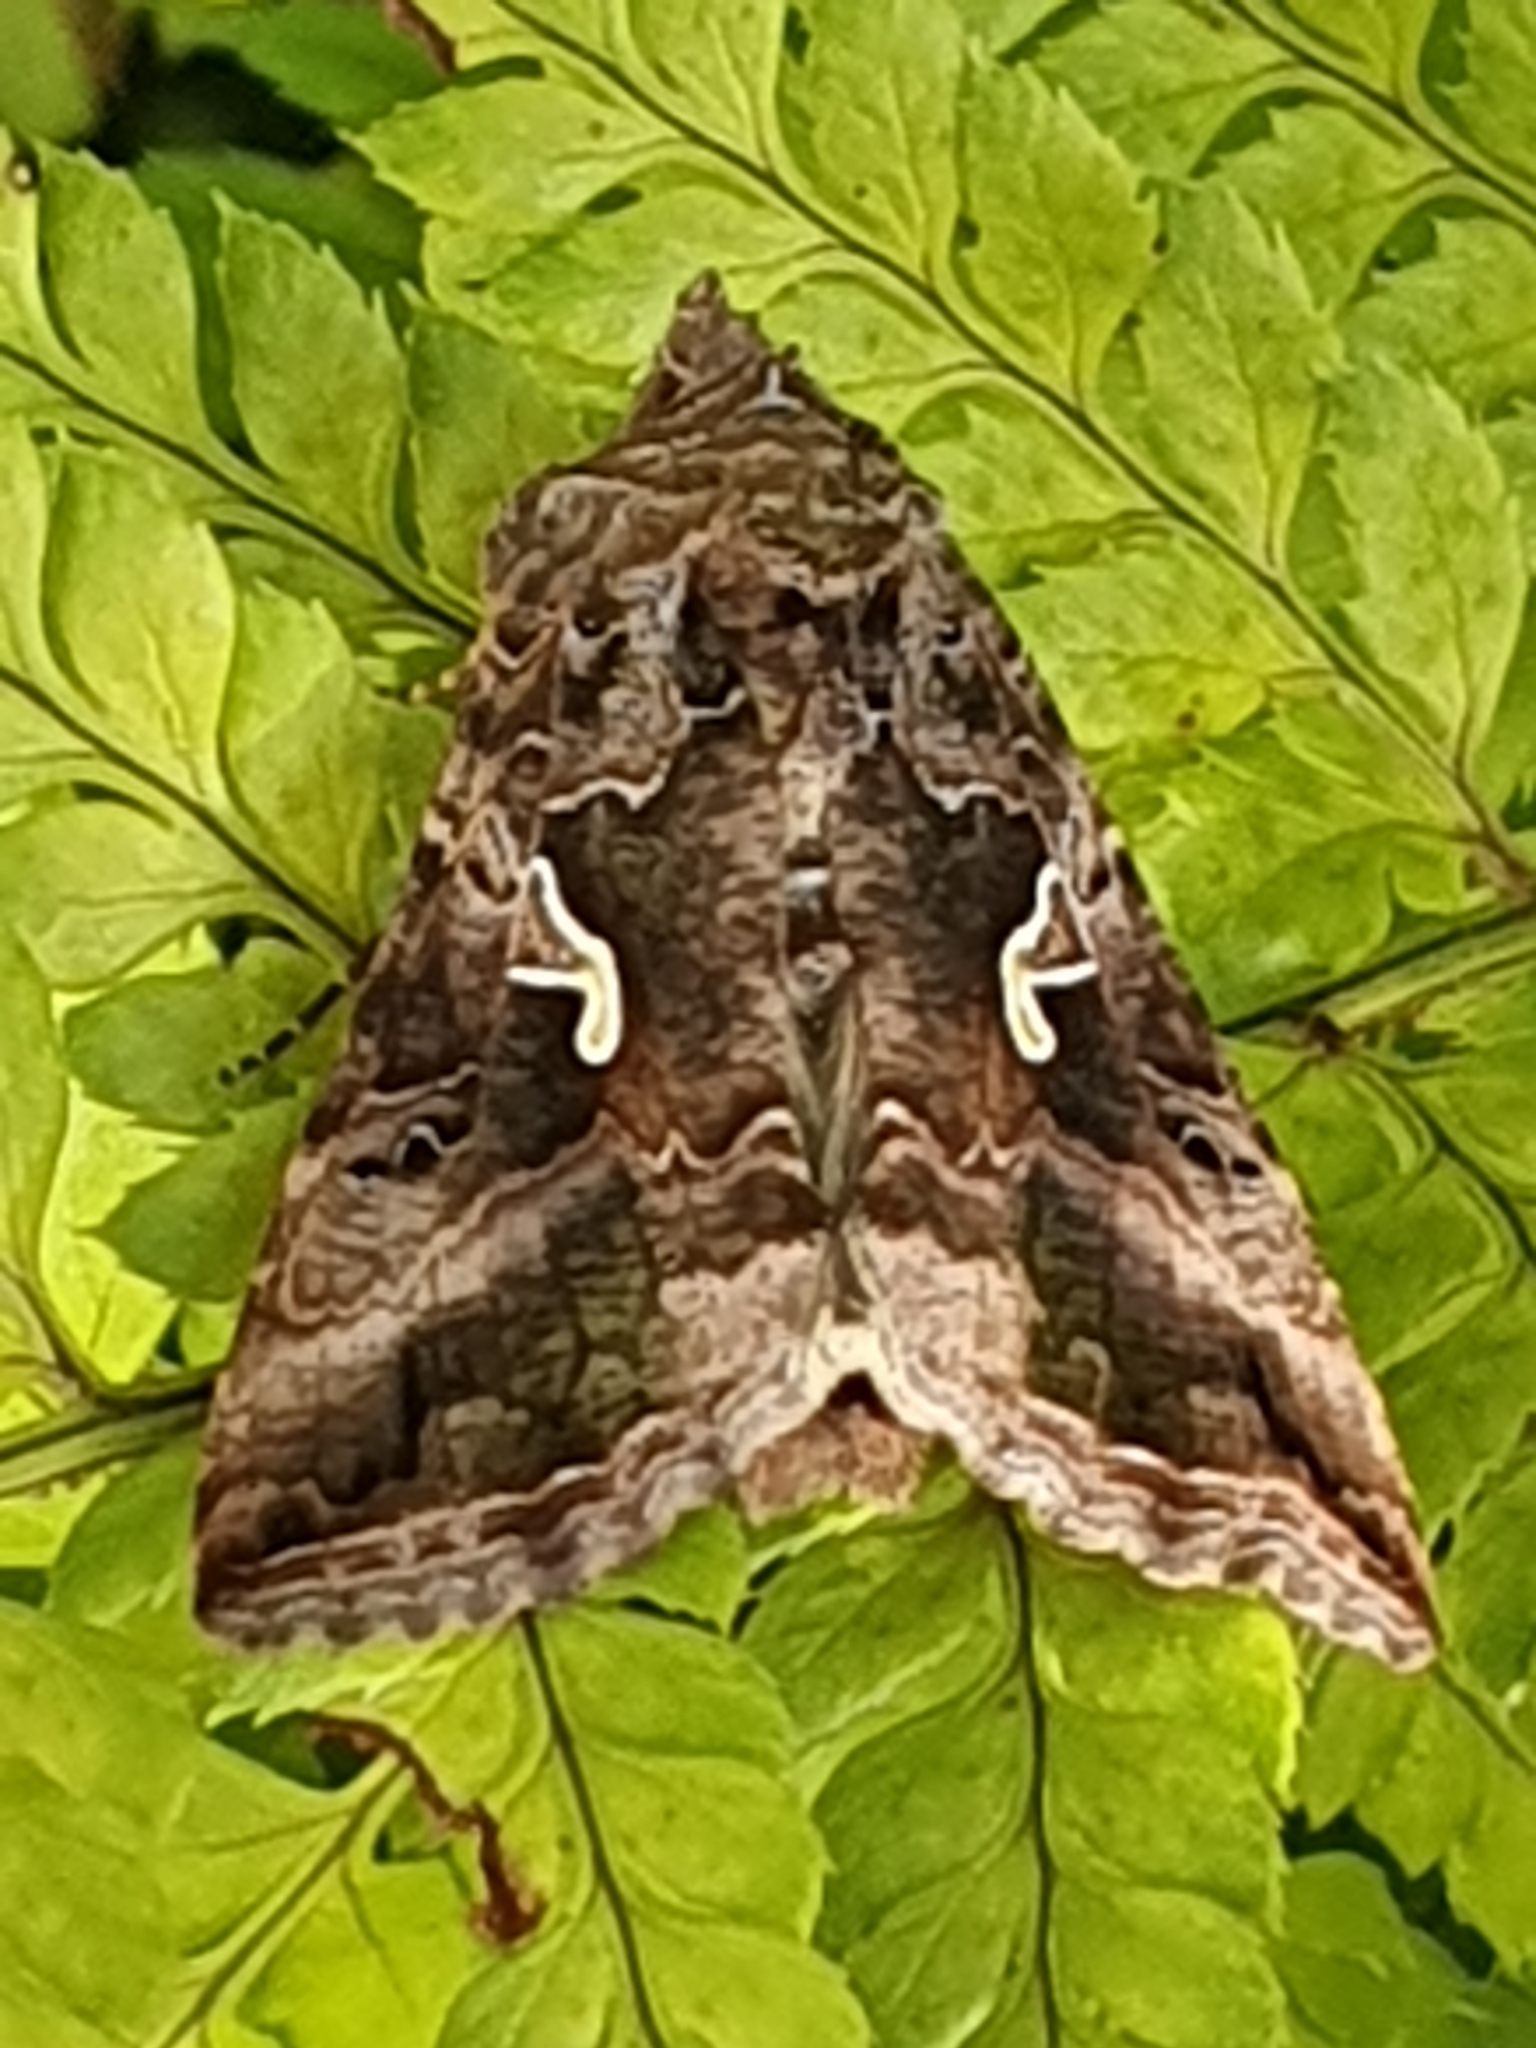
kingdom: Animalia
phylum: Arthropoda
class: Insecta
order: Lepidoptera
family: Noctuidae
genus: Autographa
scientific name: Autographa gamma
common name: Silver y
